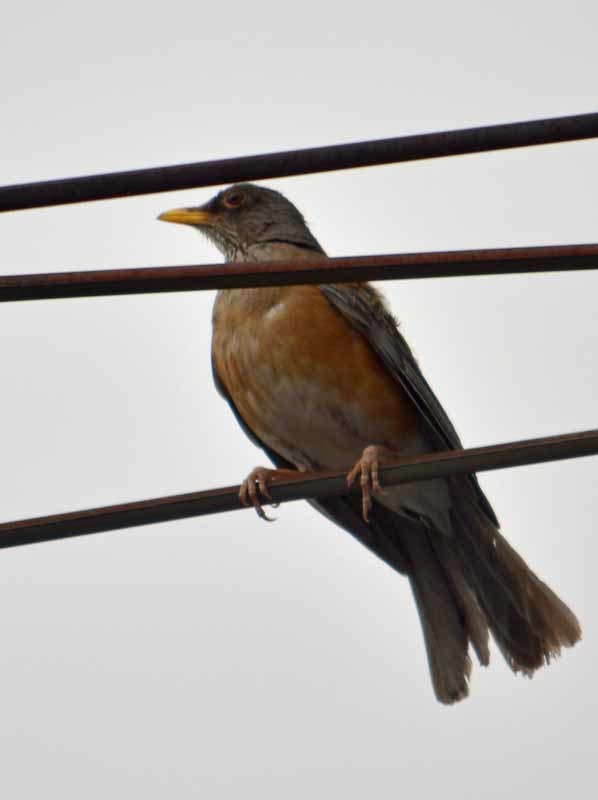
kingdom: Animalia
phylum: Chordata
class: Aves
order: Passeriformes
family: Turdidae
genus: Turdus
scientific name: Turdus rufopalliatus
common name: Rufous-backed robin
